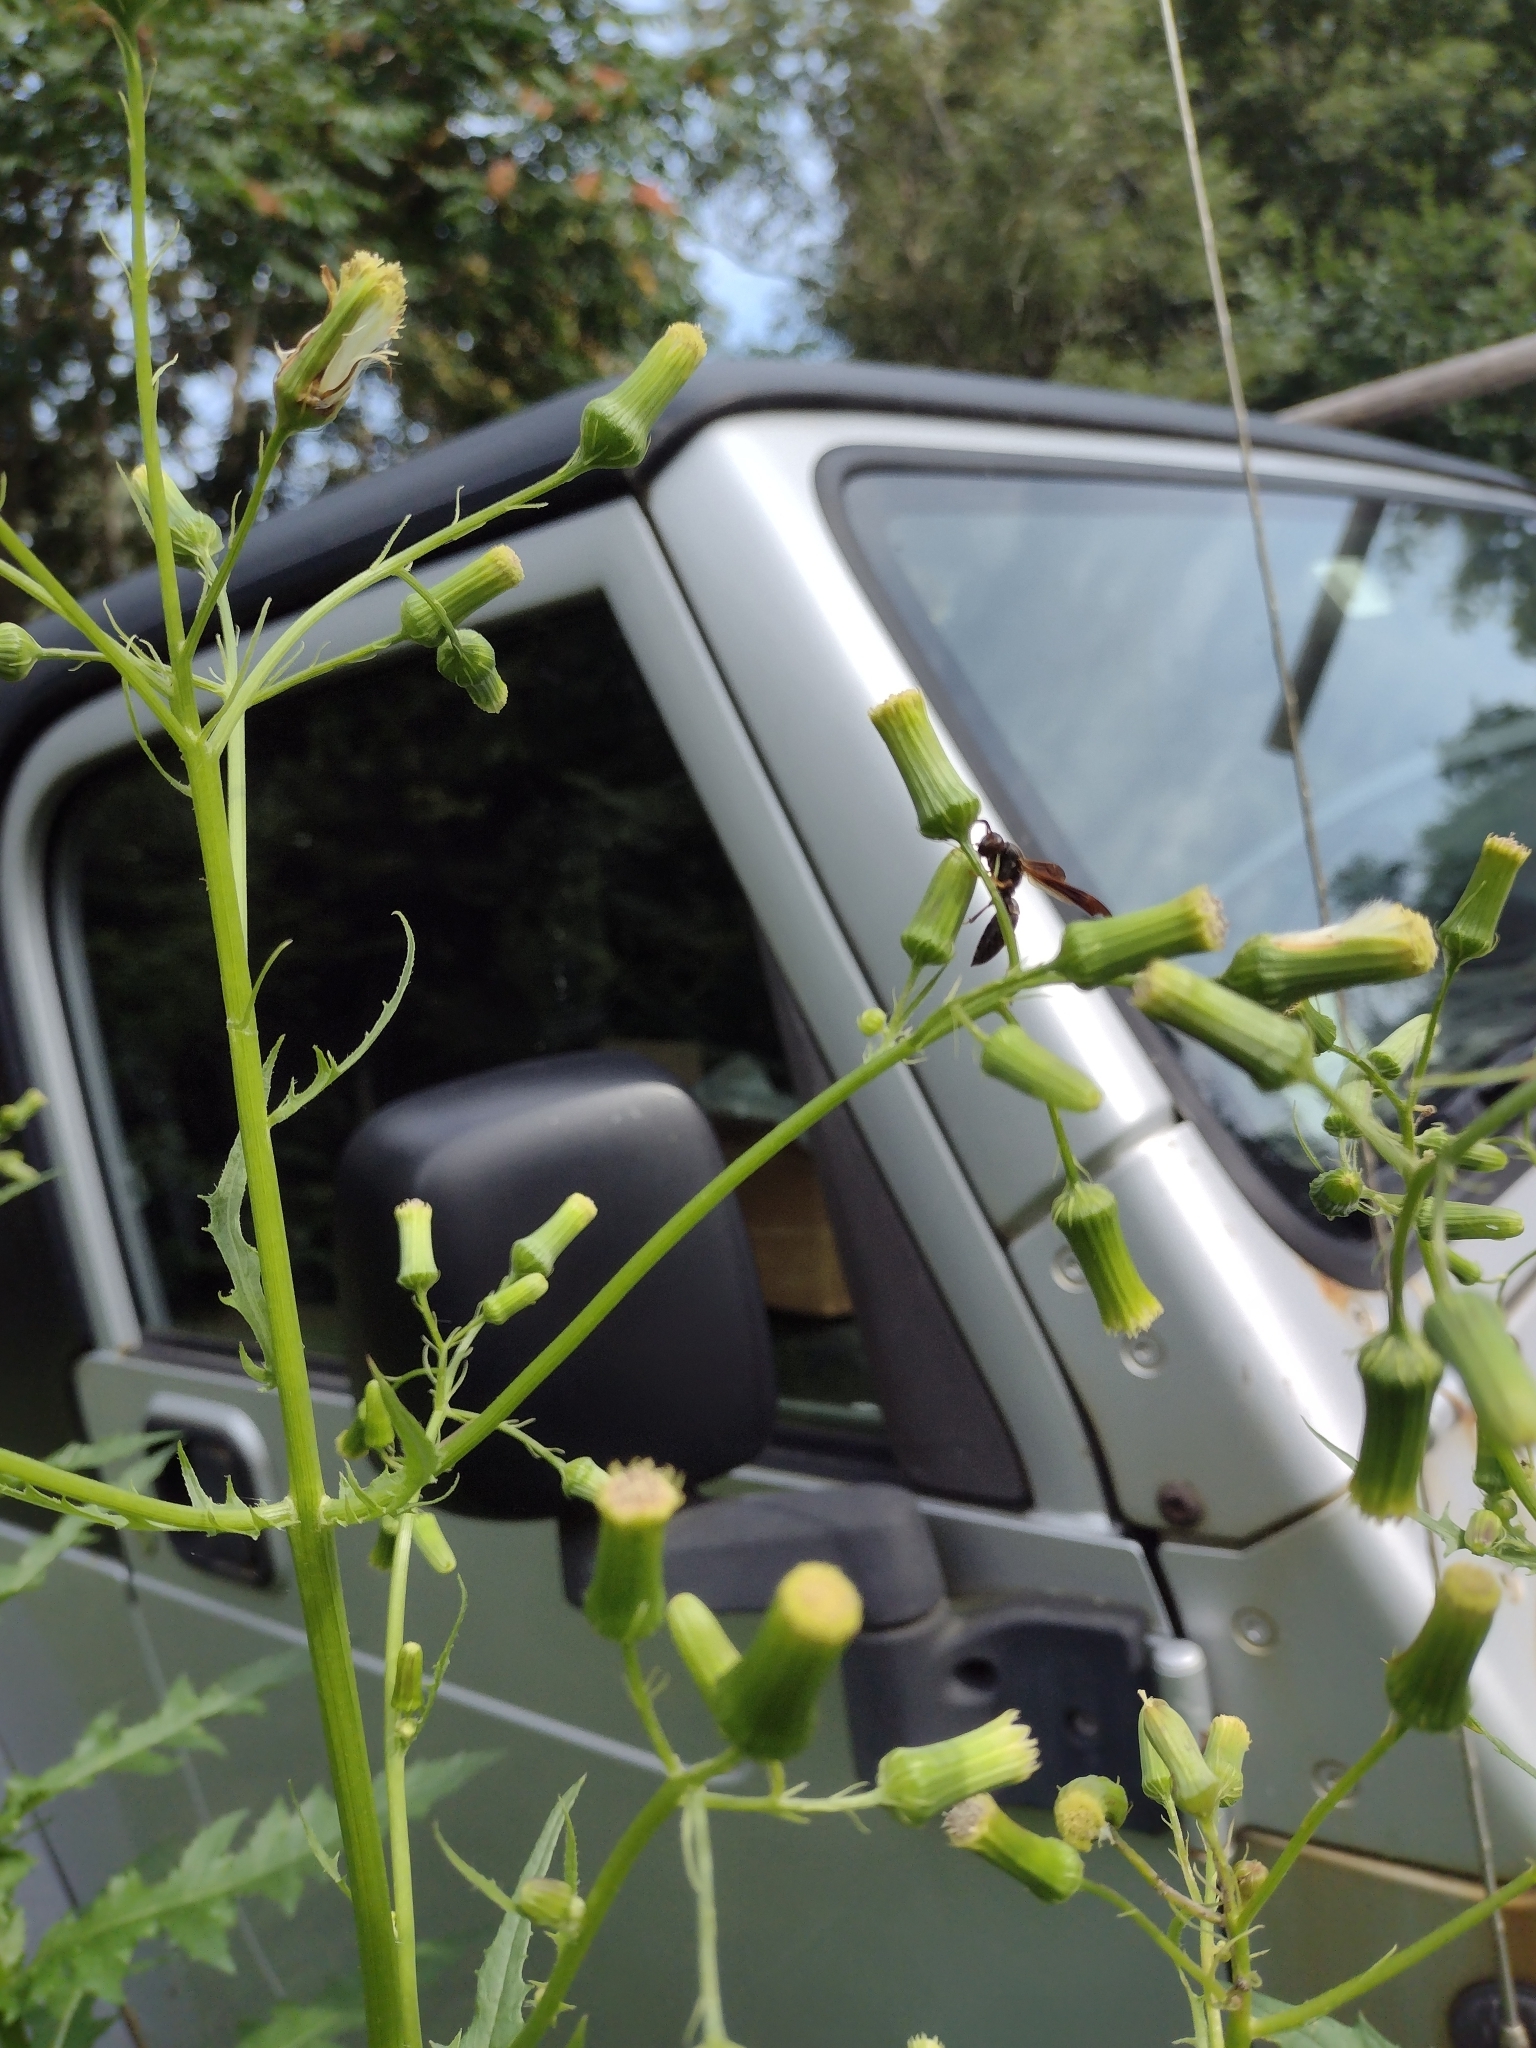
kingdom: Animalia
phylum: Arthropoda
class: Insecta
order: Hymenoptera
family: Vespidae
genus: Fuscopolistes
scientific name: Fuscopolistes
